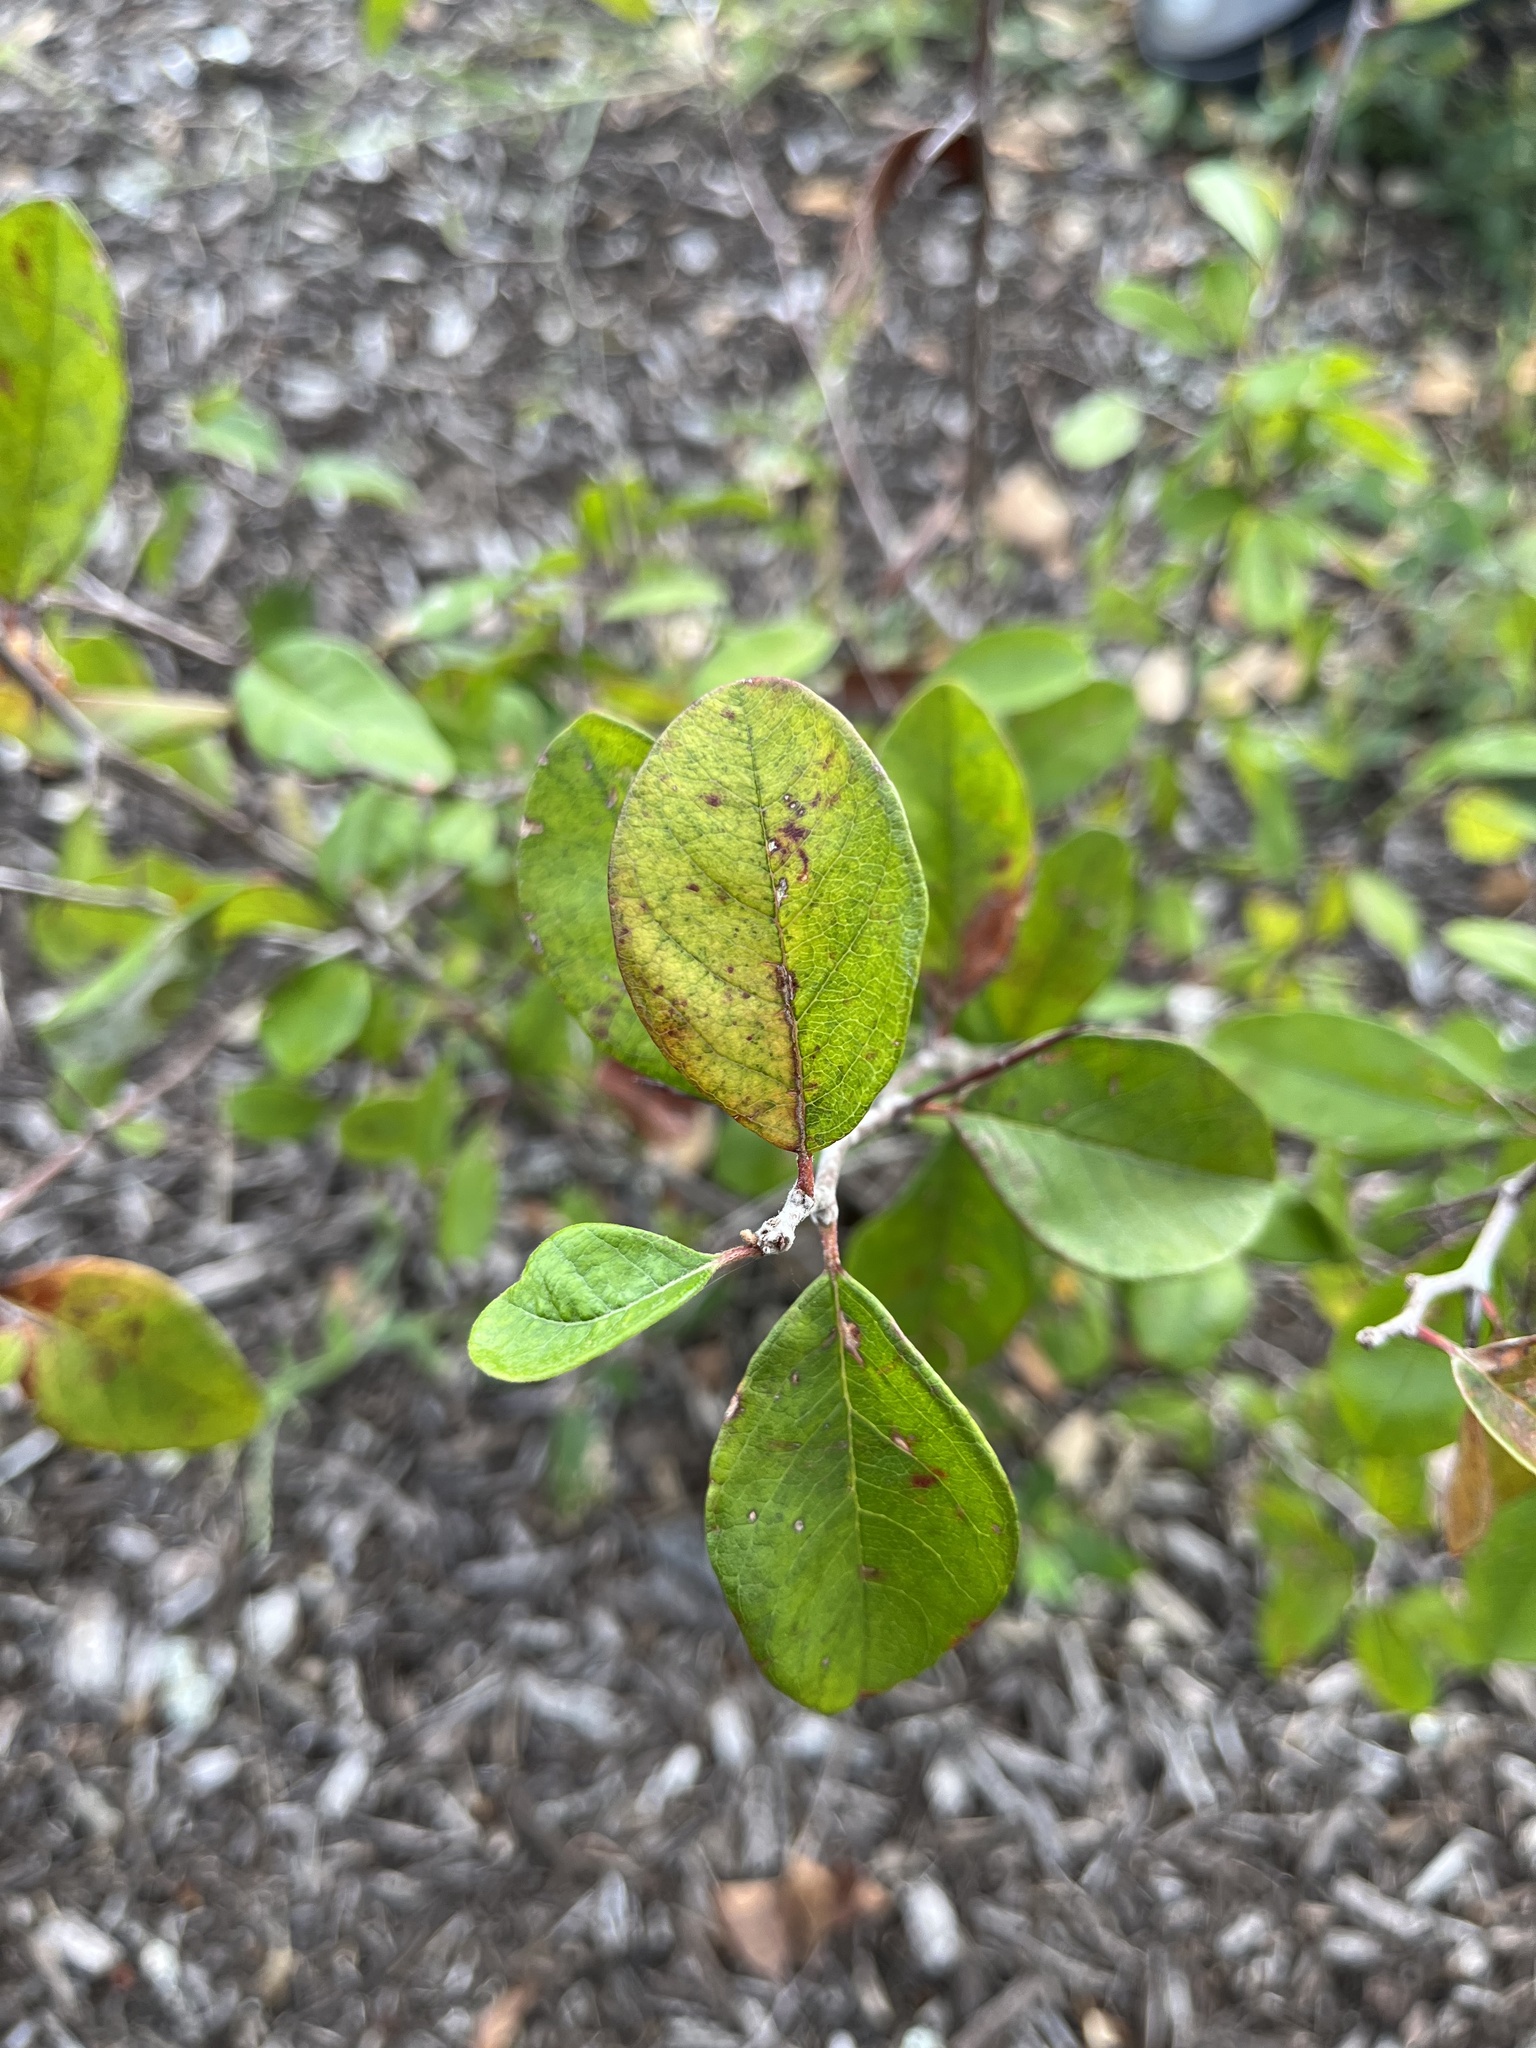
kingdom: Plantae
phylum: Tracheophyta
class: Magnoliopsida
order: Ericales
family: Sapotaceae
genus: Sideroxylon
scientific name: Sideroxylon lanuginosum
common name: Chittamwood
